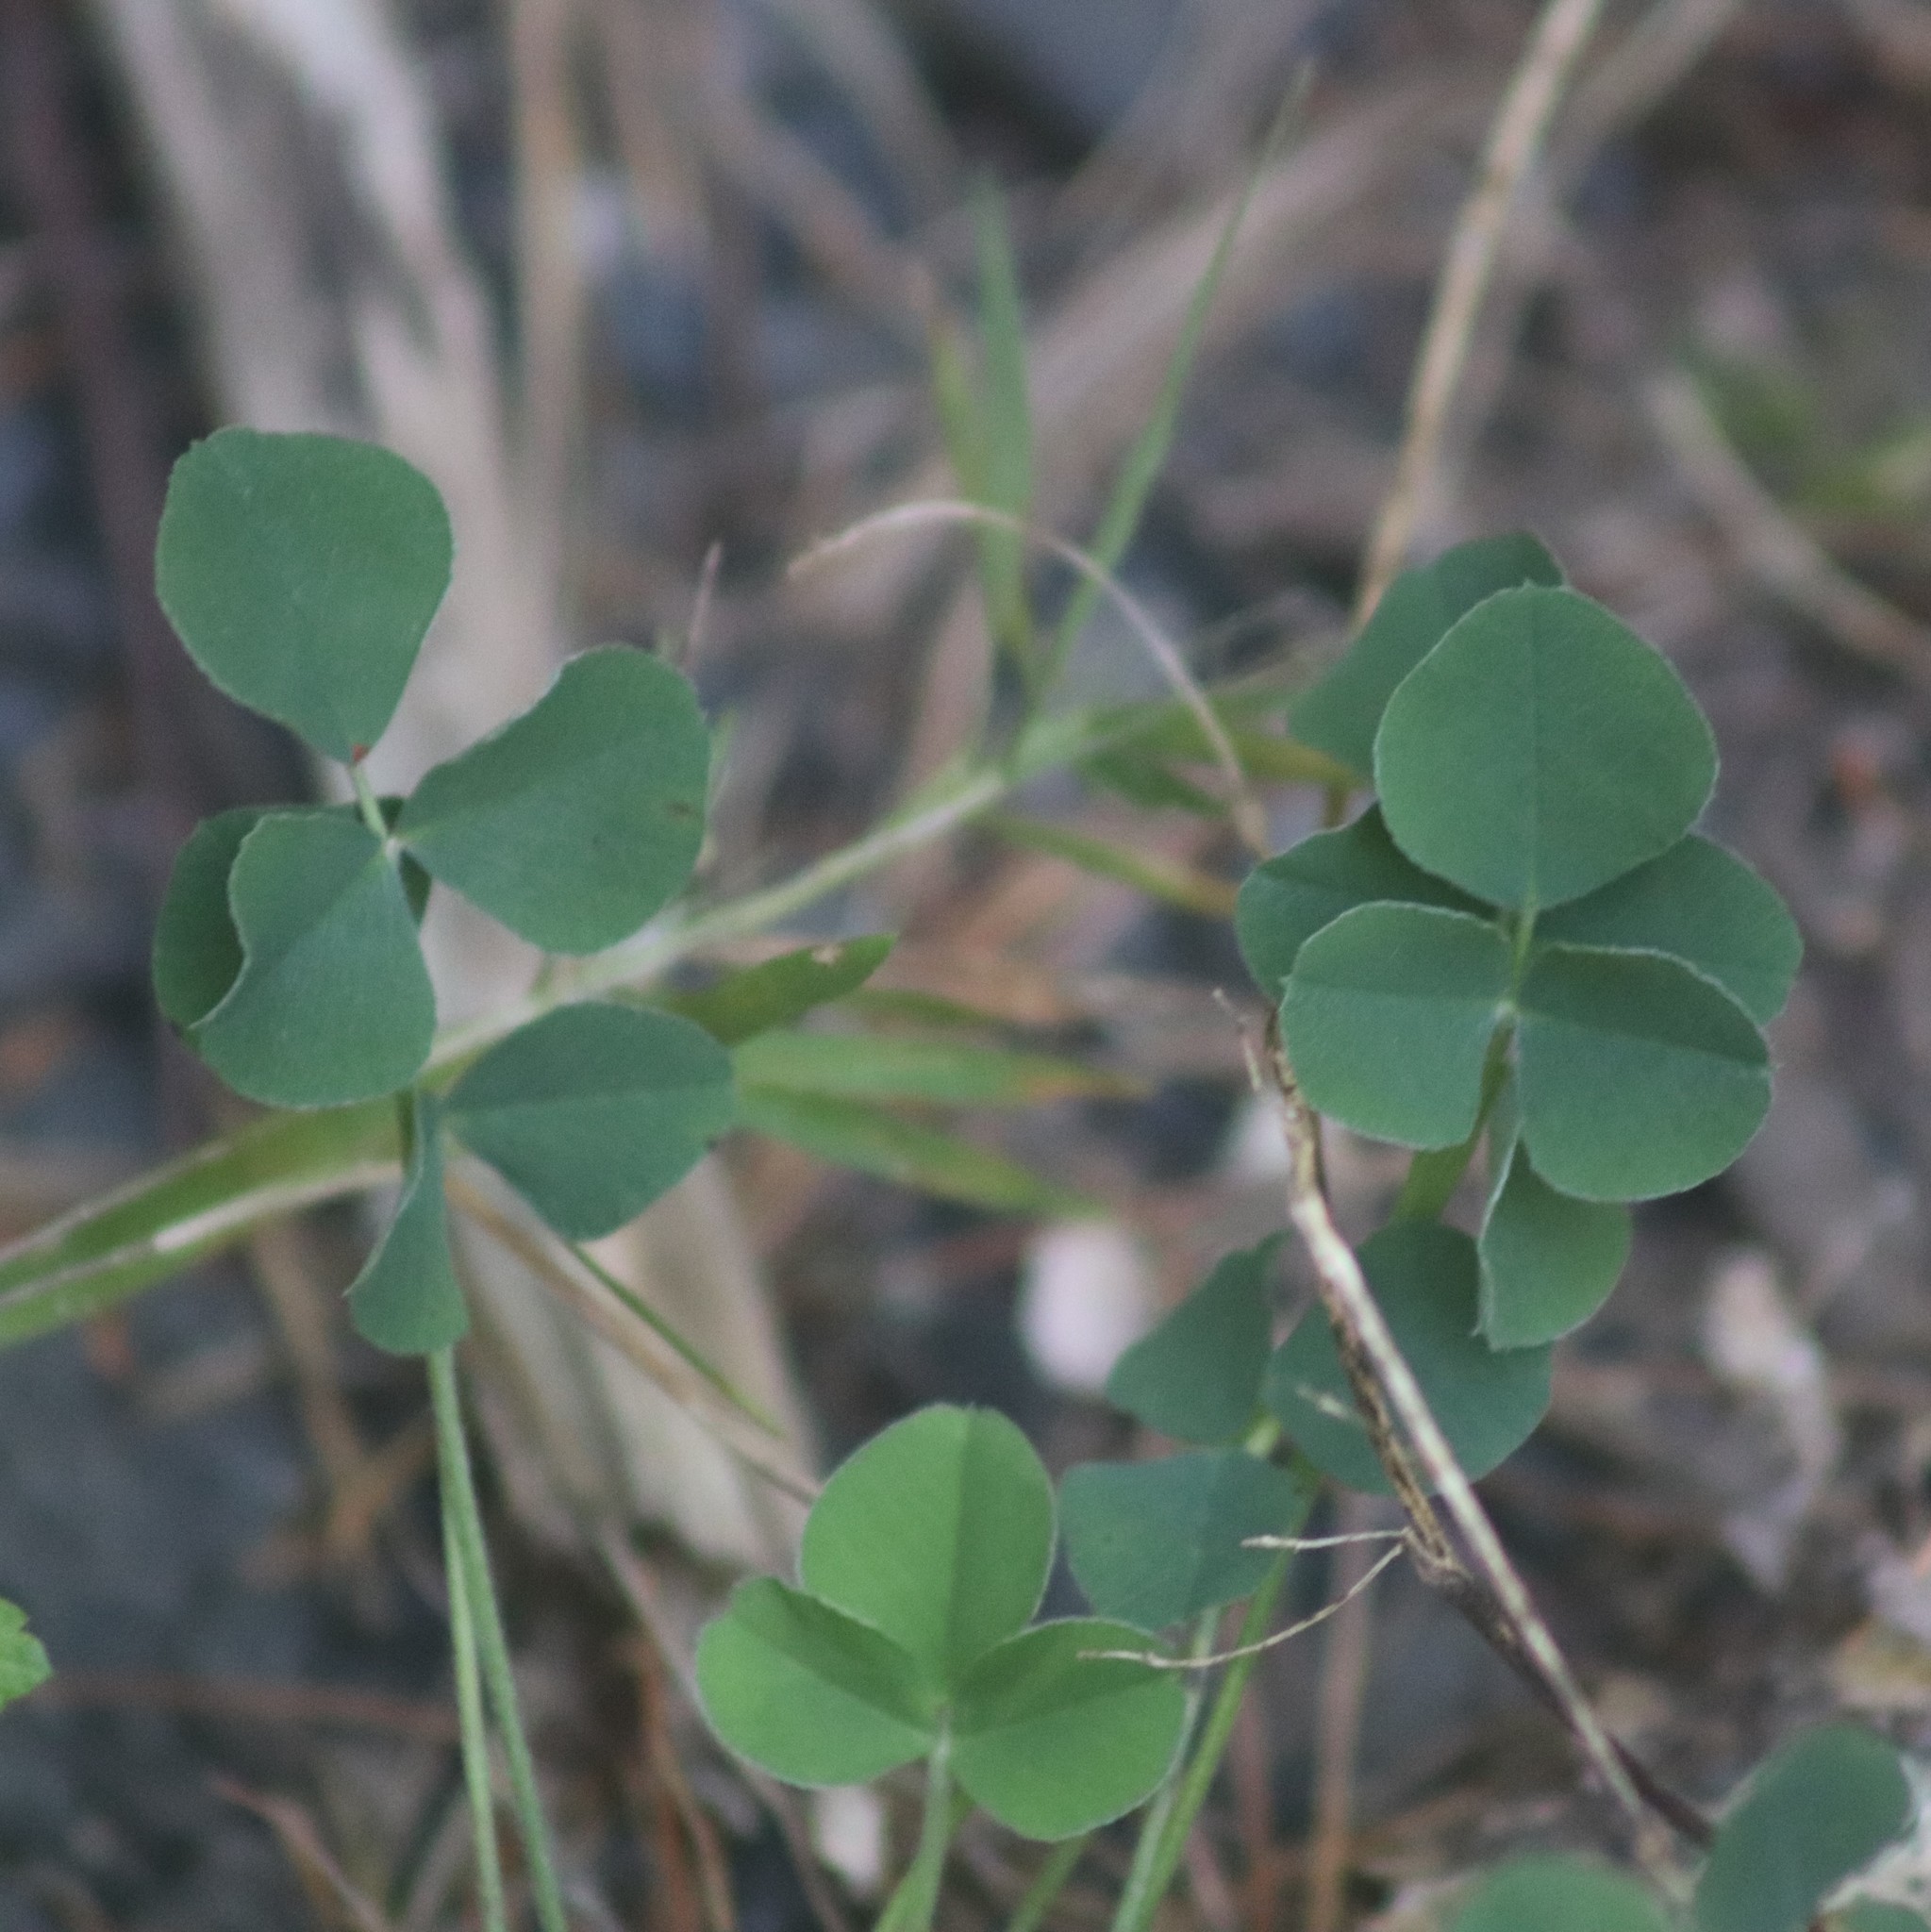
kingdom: Plantae
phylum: Tracheophyta
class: Magnoliopsida
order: Fabales
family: Fabaceae
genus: Medicago
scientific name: Medicago lupulina
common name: Black medick
